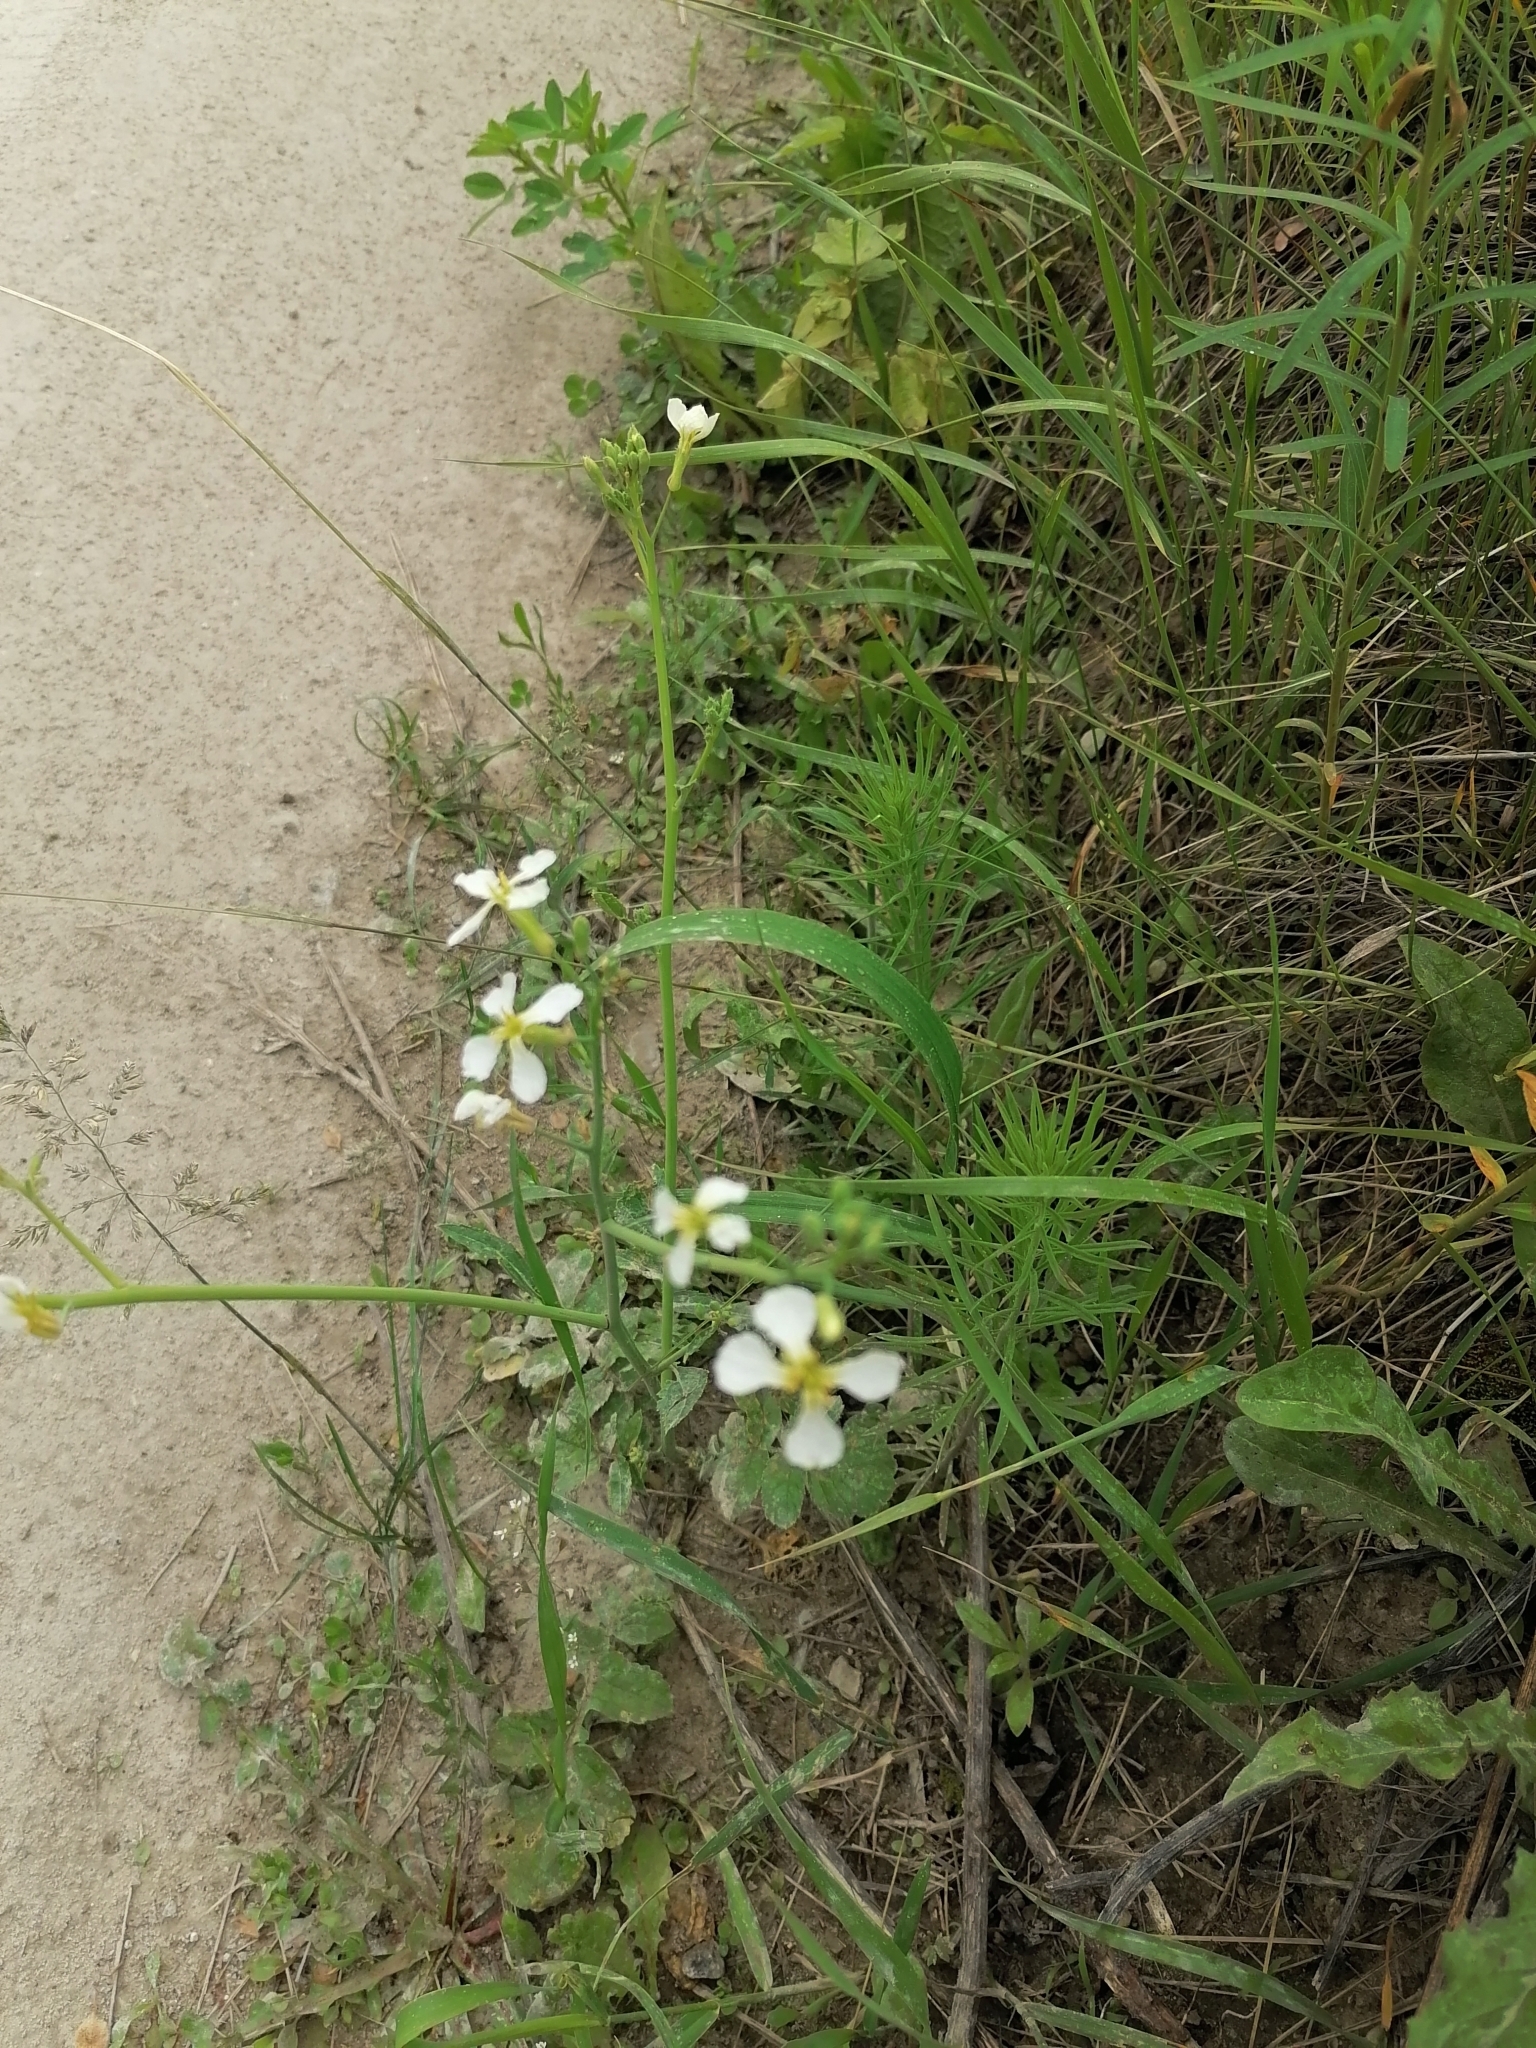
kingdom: Plantae
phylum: Tracheophyta
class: Magnoliopsida
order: Brassicales
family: Brassicaceae
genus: Raphanus
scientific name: Raphanus raphanistrum
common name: Wild radish
